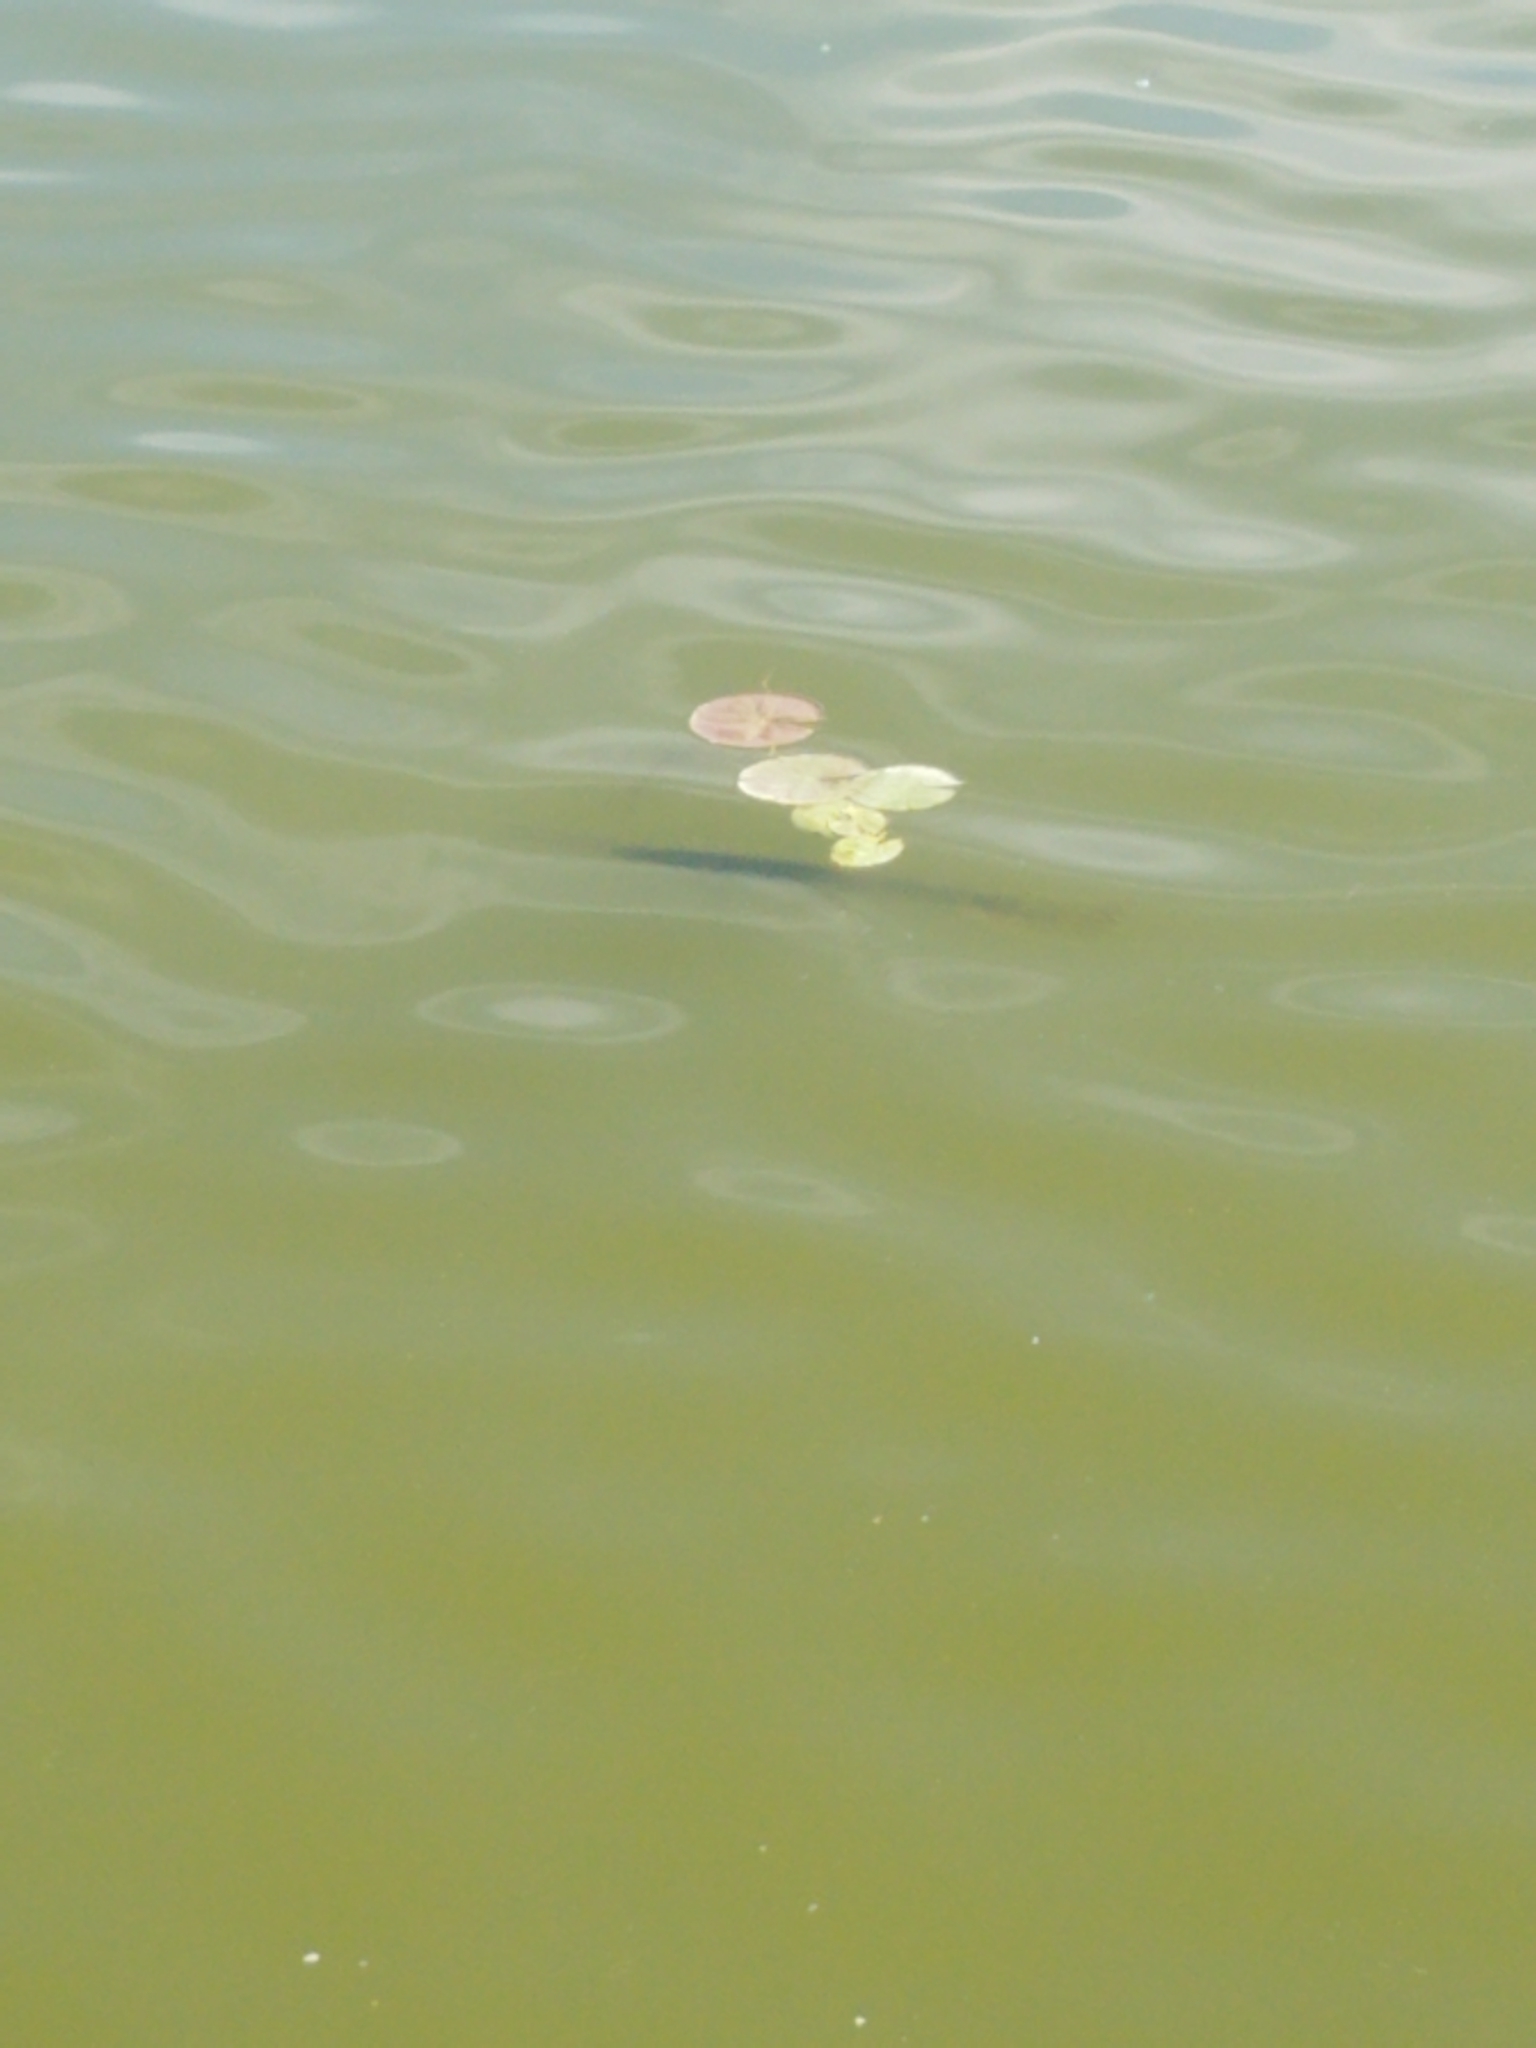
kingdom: Animalia
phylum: Chordata
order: Lepisosteiformes
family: Lepisosteidae
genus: Lepisosteus
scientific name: Lepisosteus osseus
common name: Longnose gar
